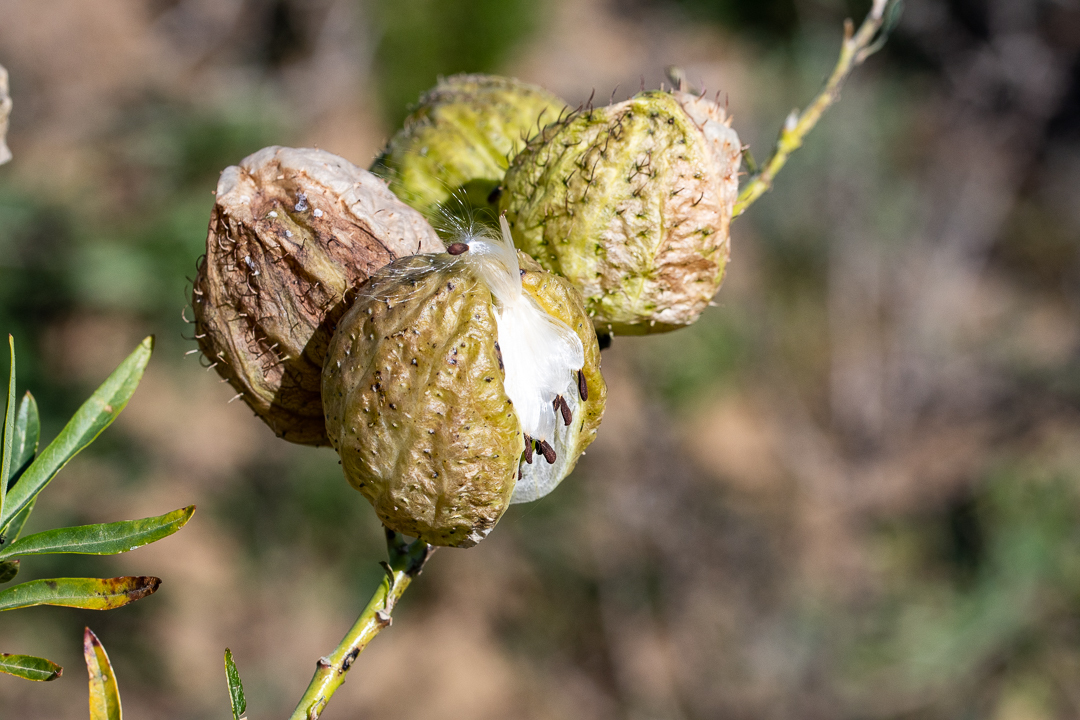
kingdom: Plantae
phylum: Tracheophyta
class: Magnoliopsida
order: Gentianales
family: Apocynaceae
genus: Gomphocarpus
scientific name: Gomphocarpus physocarpus
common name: Balloon cotton bush
